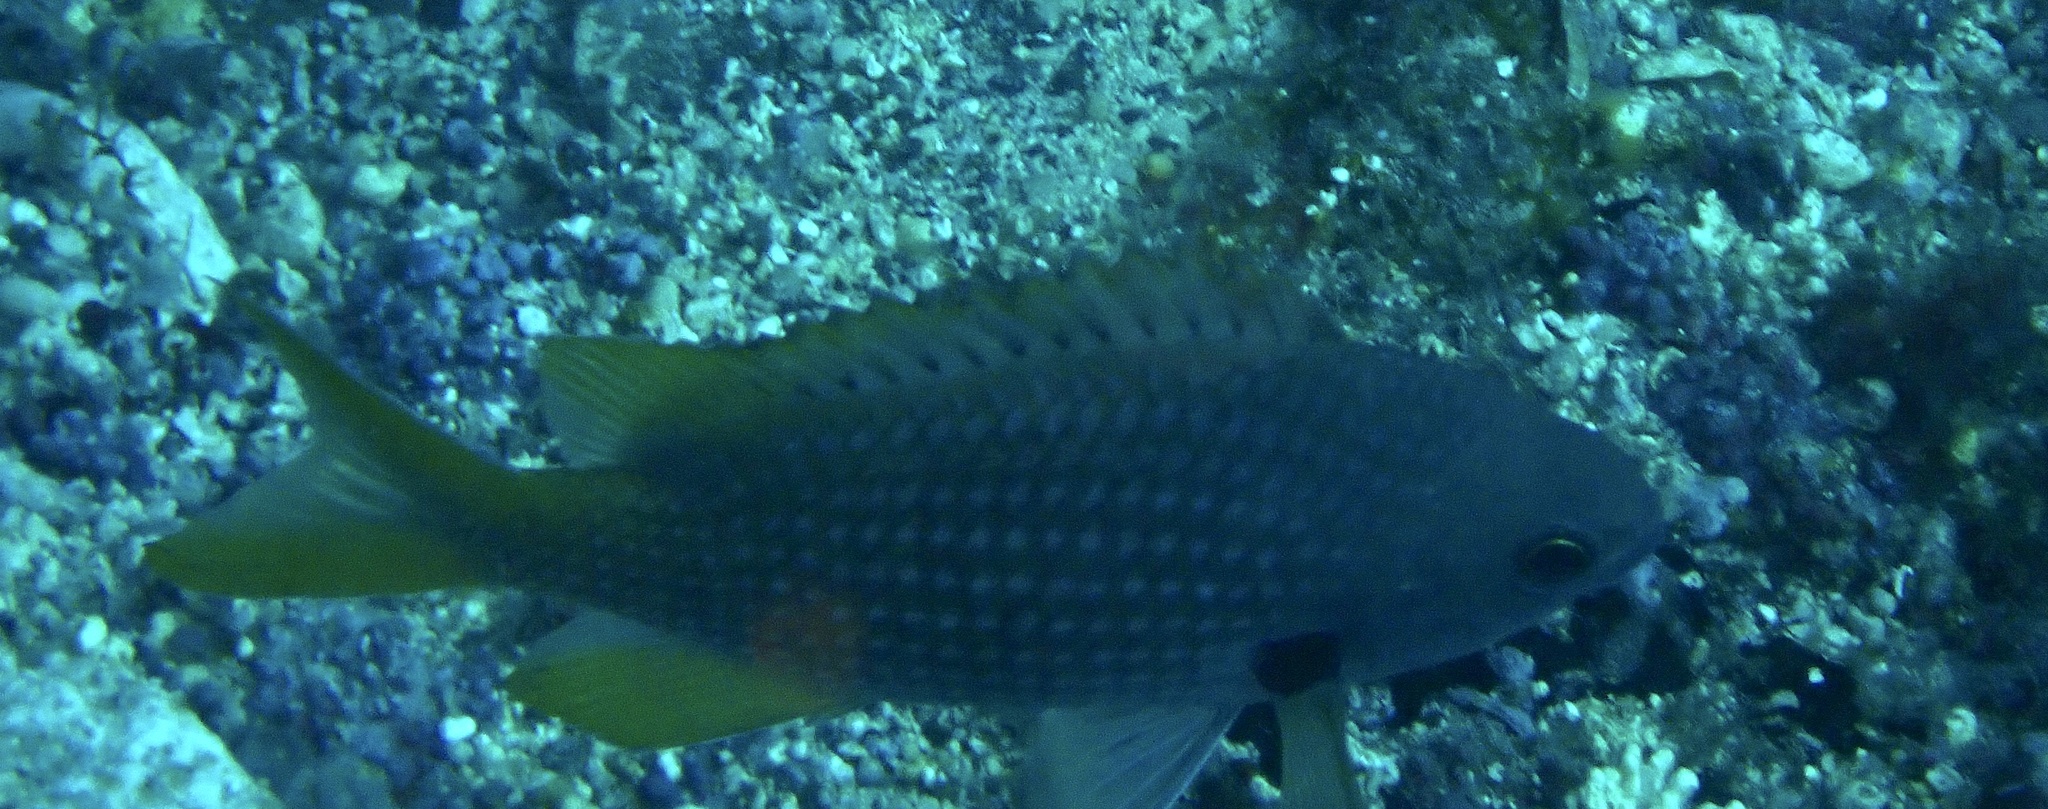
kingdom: Animalia
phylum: Chordata
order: Perciformes
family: Pomacentridae
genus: Chromis
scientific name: Chromis lubbocki
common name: Lubbock's chromis
